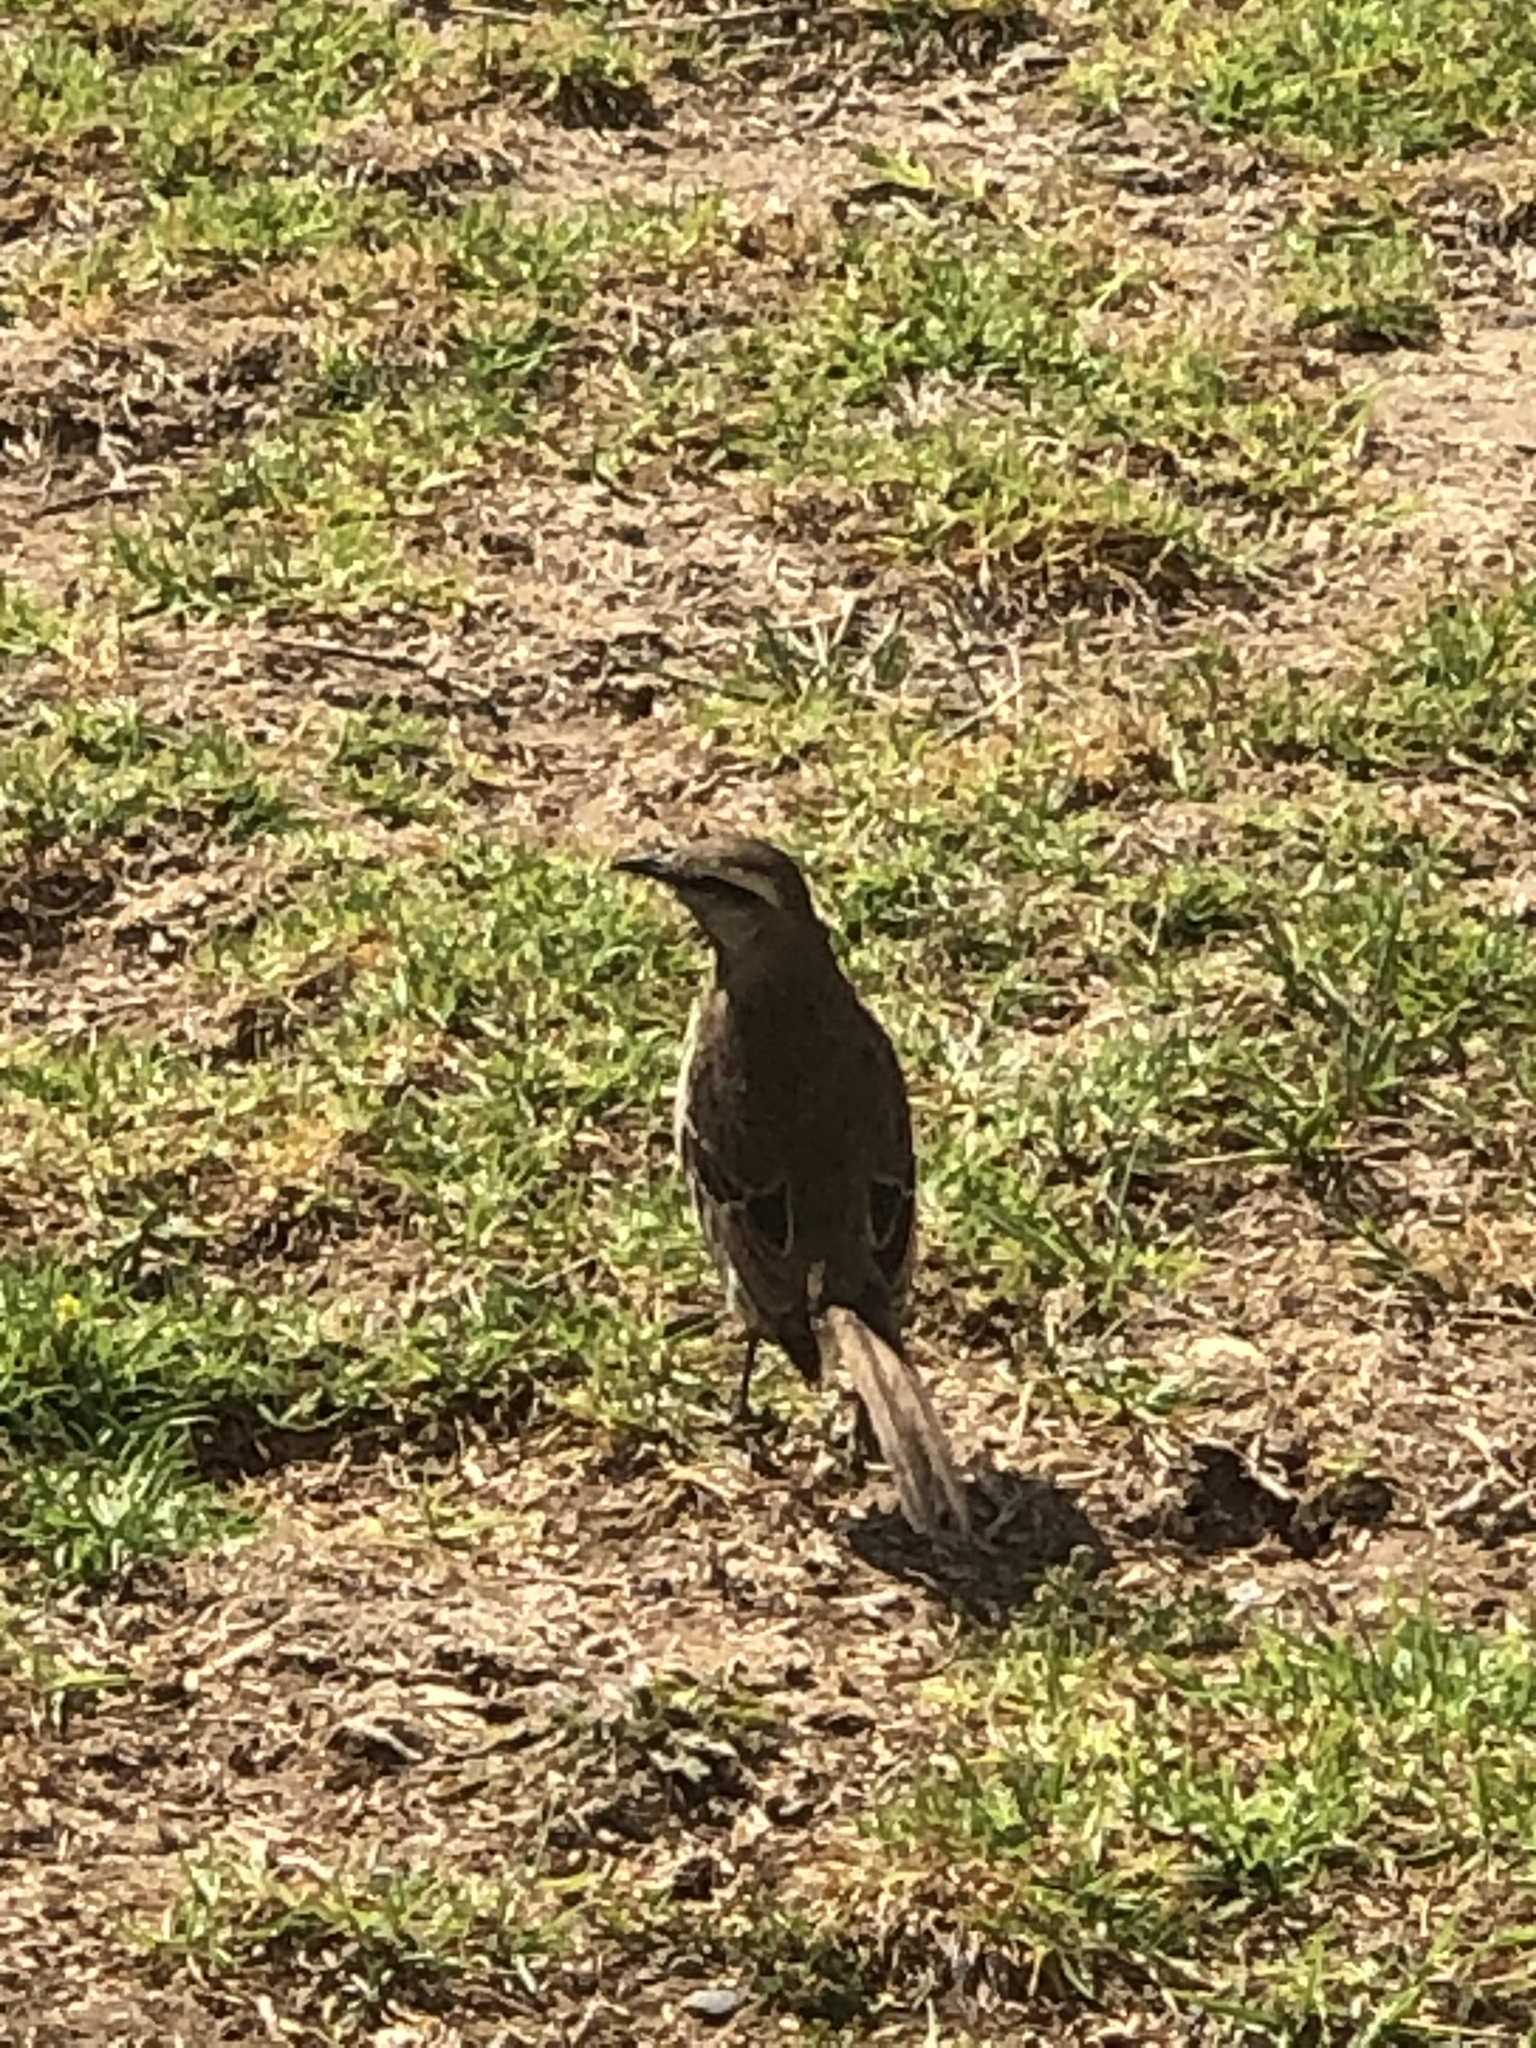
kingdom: Animalia
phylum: Chordata
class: Aves
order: Passeriformes
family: Mimidae
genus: Mimus
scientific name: Mimus thenca
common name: Chilean mockingbird
